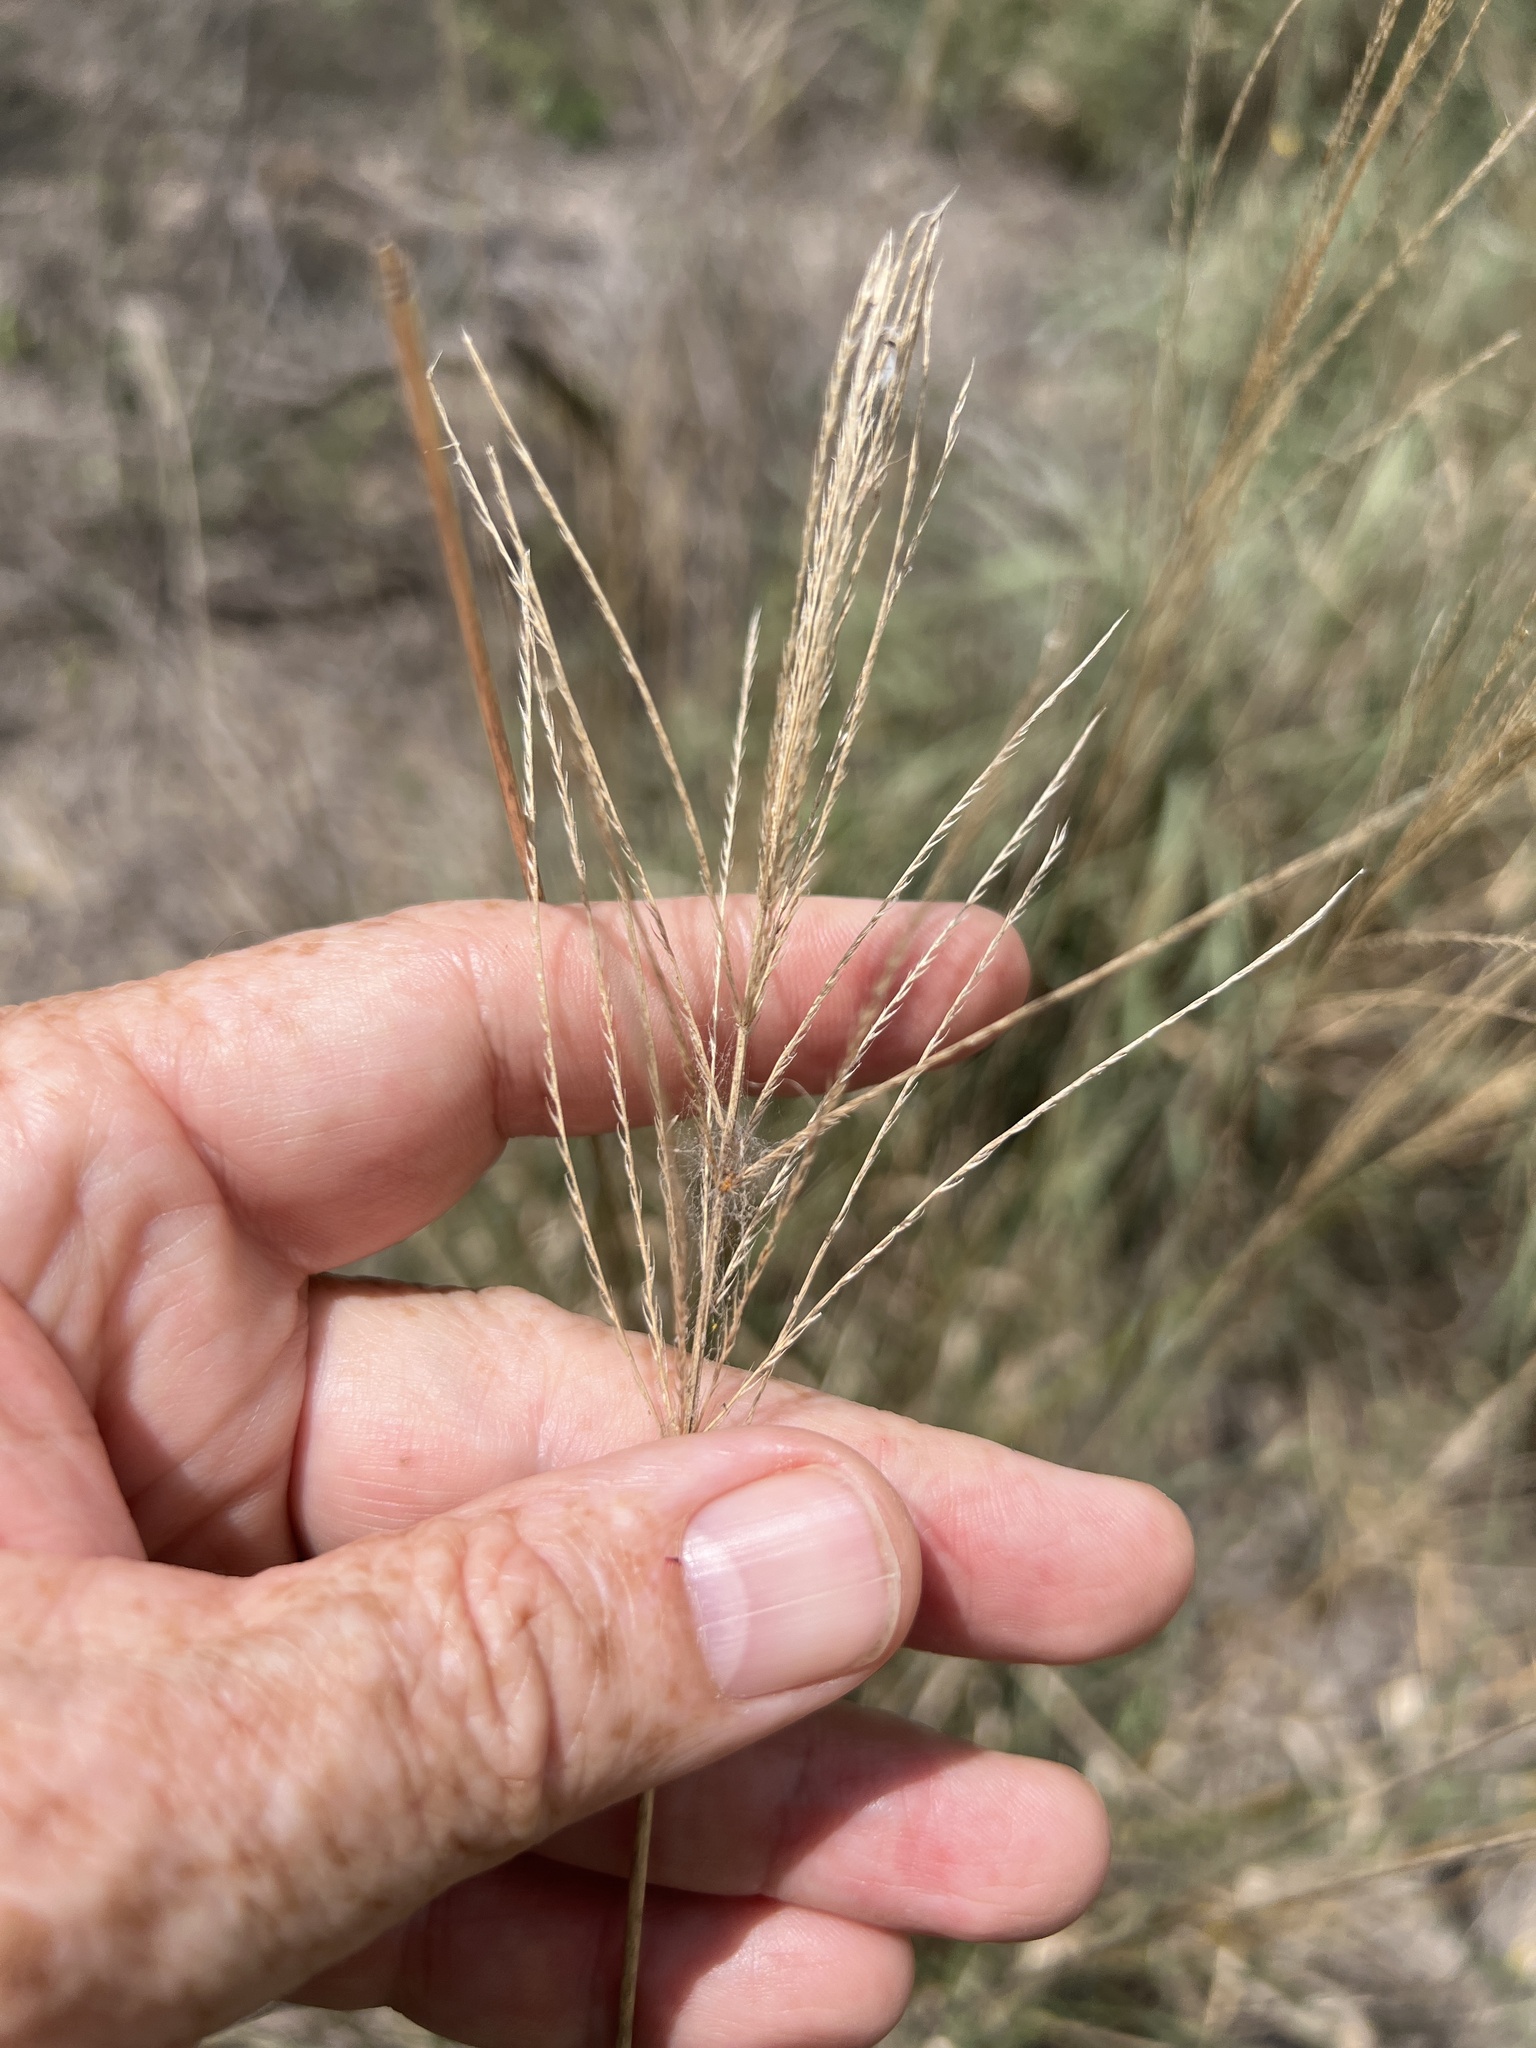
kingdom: Plantae
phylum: Tracheophyta
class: Liliopsida
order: Poales
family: Poaceae
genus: Leptochloa
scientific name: Leptochloa pluriflora
